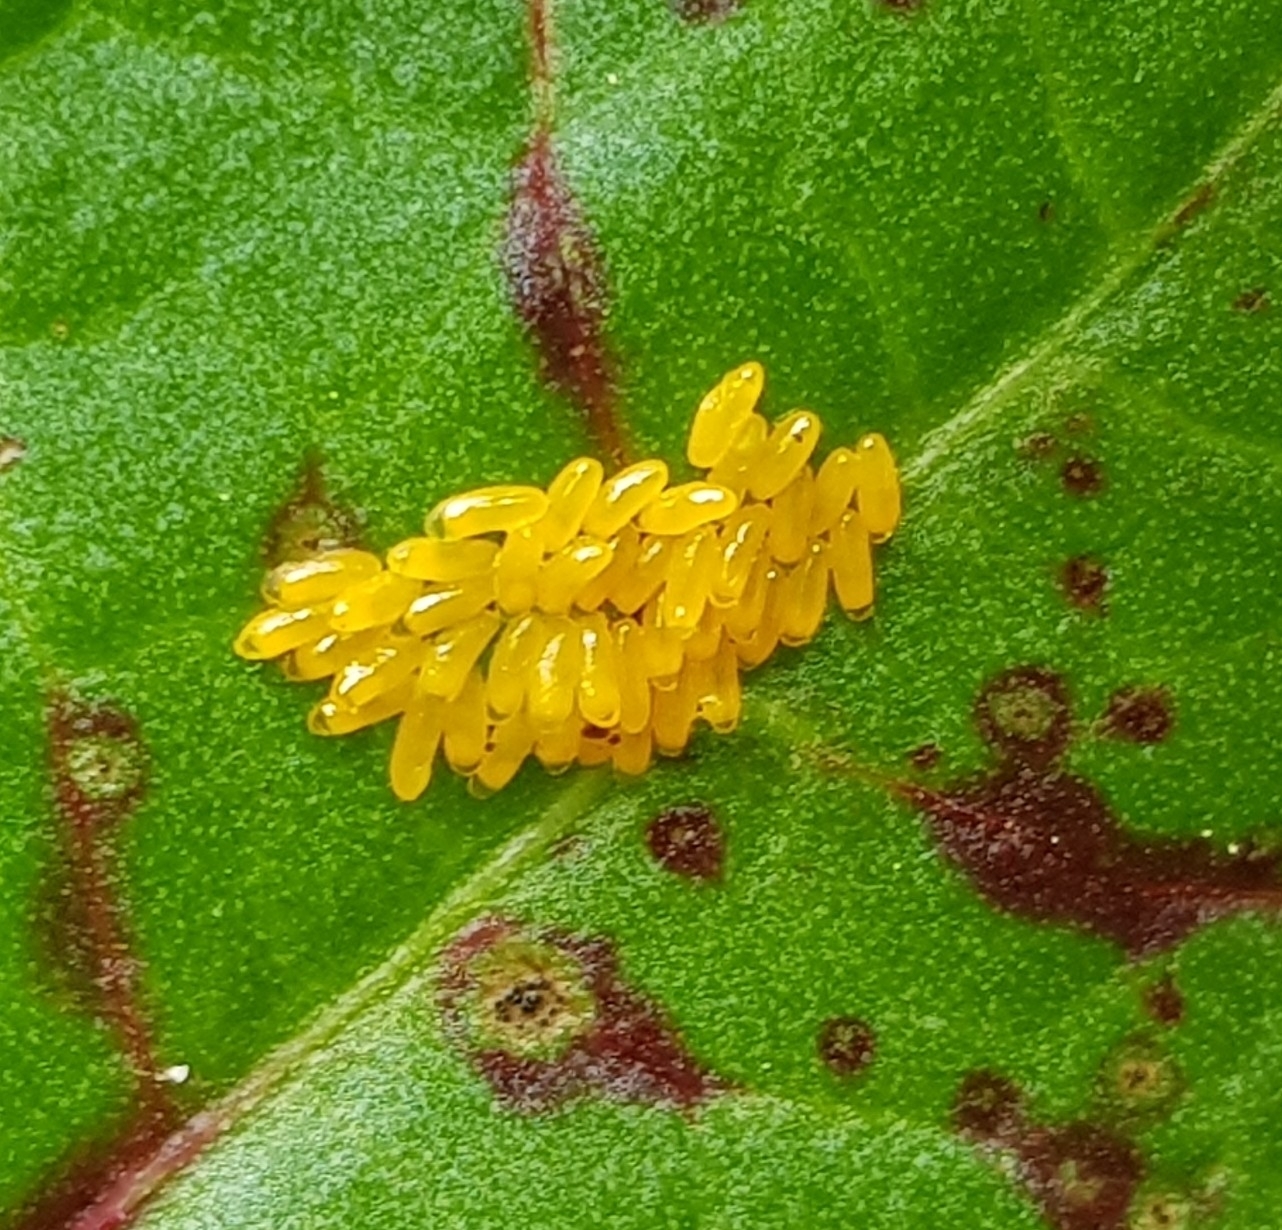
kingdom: Animalia
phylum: Arthropoda
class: Insecta
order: Coleoptera
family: Chrysomelidae
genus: Gastrophysa
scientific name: Gastrophysa viridula
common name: Green dock beetle
